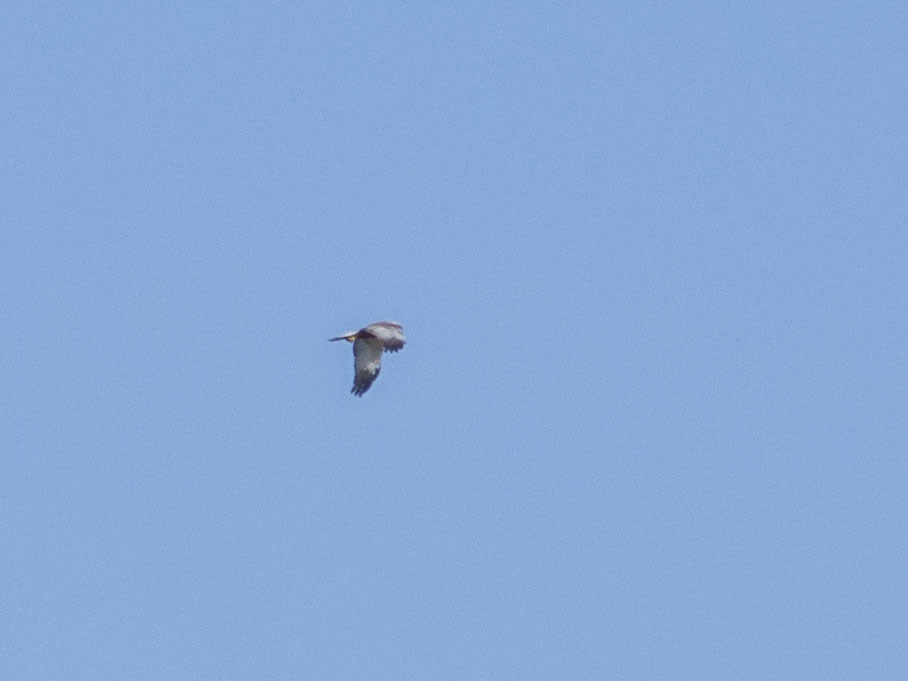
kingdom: Animalia
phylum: Chordata
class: Aves
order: Accipitriformes
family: Accipitridae
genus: Circus
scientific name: Circus aeruginosus
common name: Western marsh harrier
